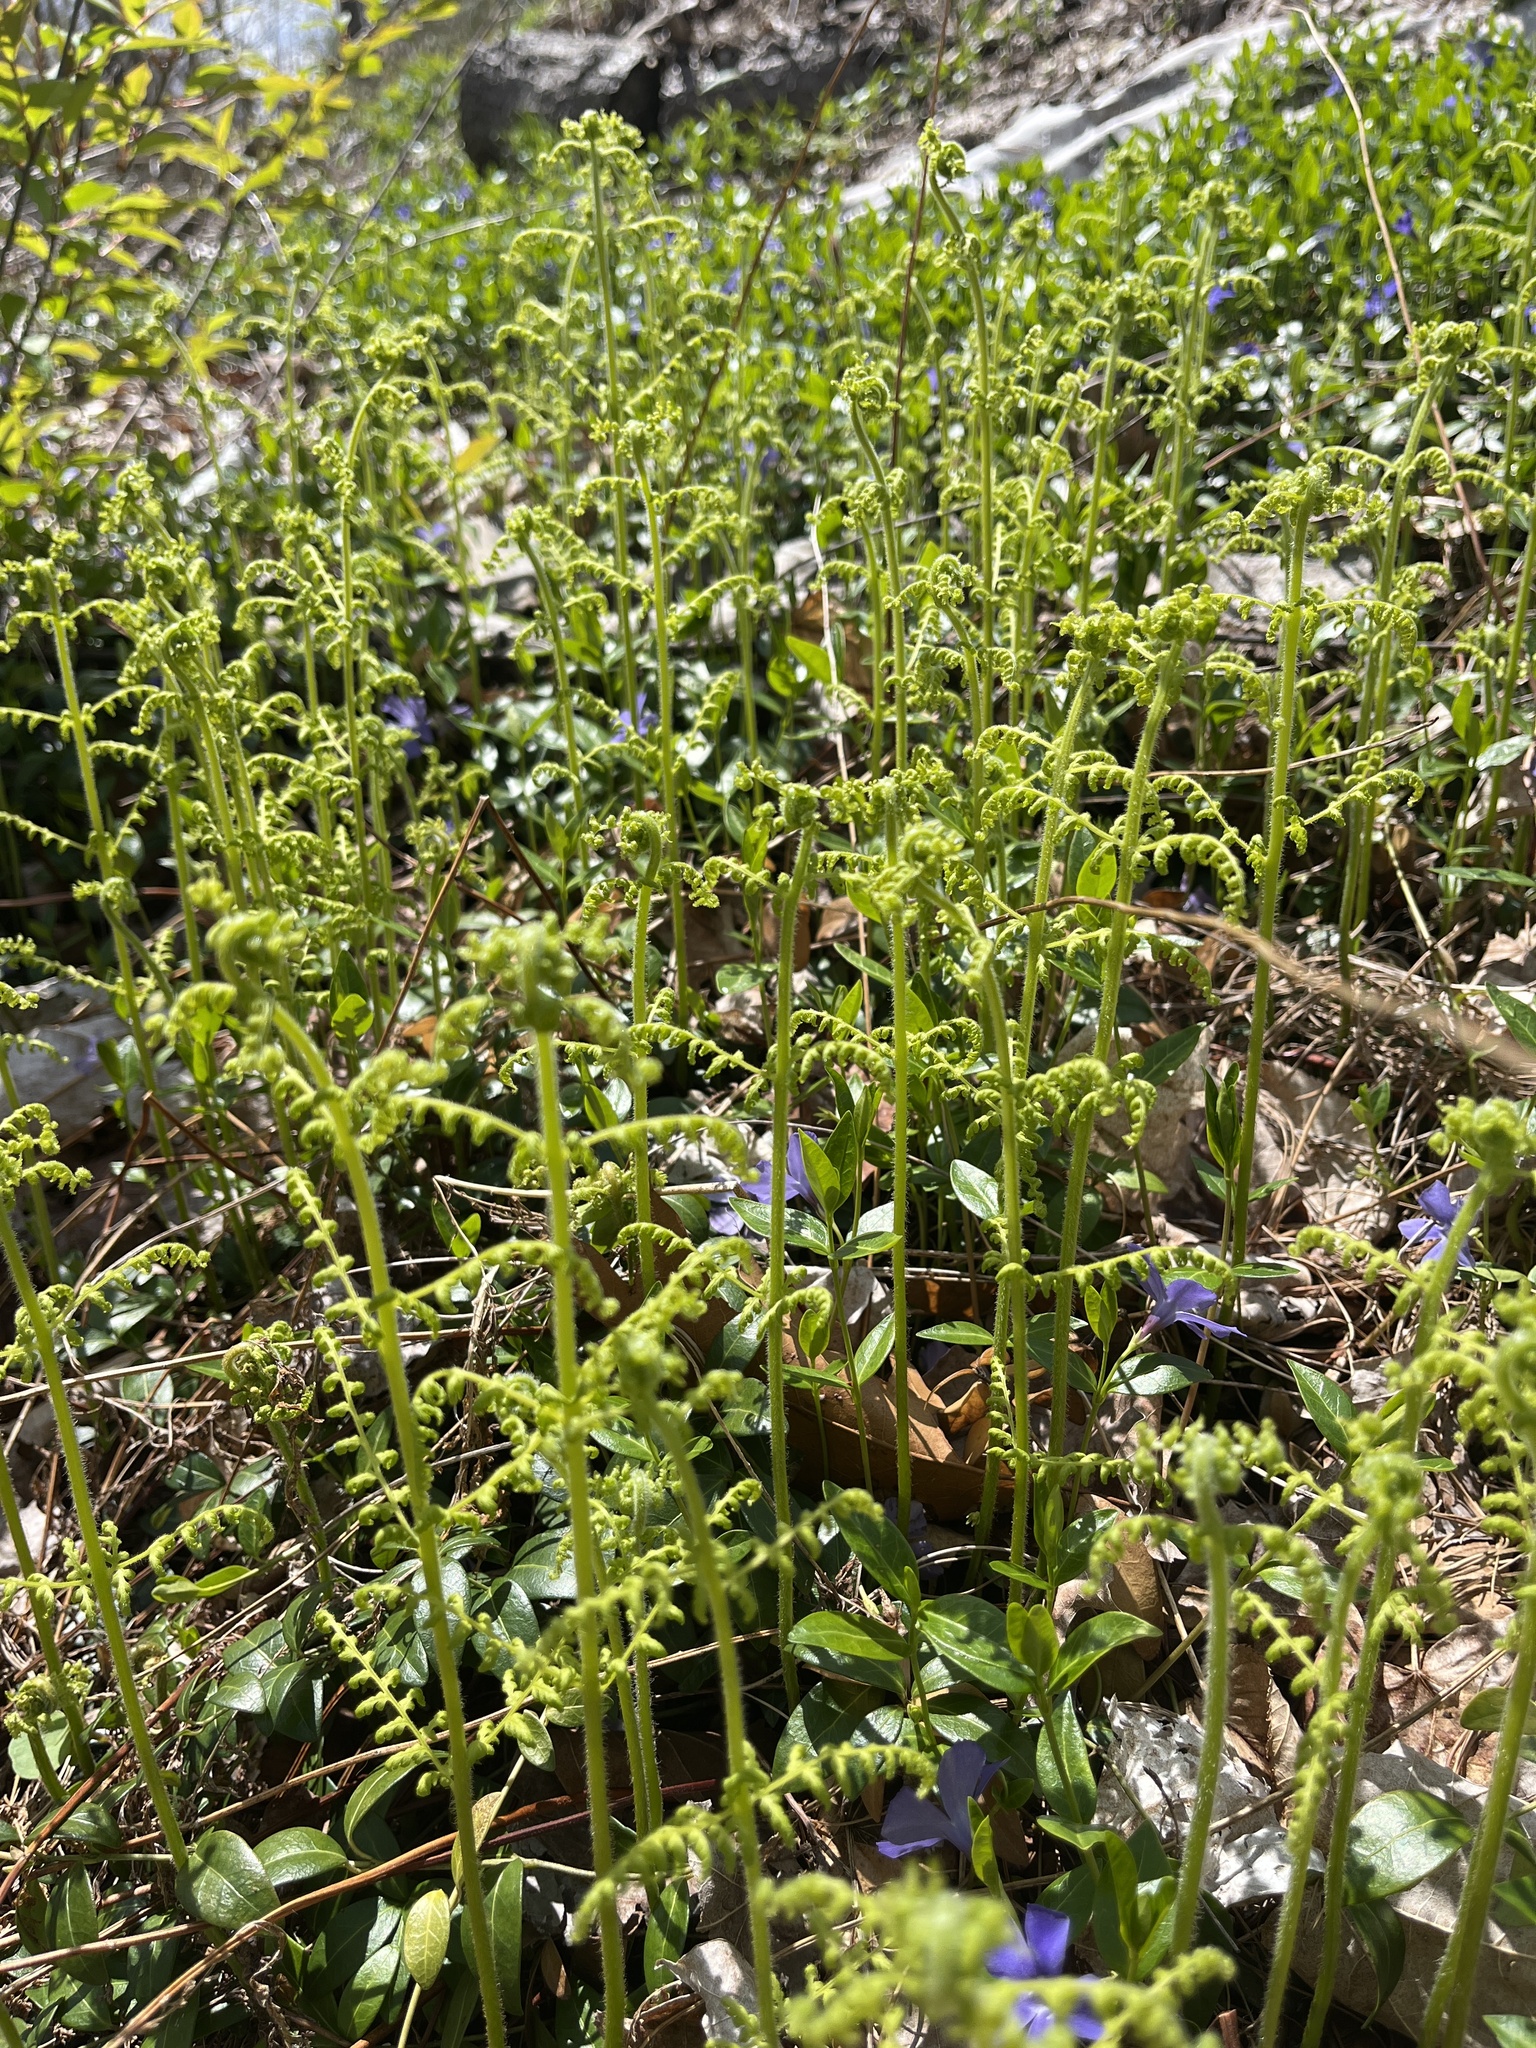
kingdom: Plantae
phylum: Tracheophyta
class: Polypodiopsida
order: Polypodiales
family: Dennstaedtiaceae
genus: Sitobolium
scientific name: Sitobolium punctilobum
